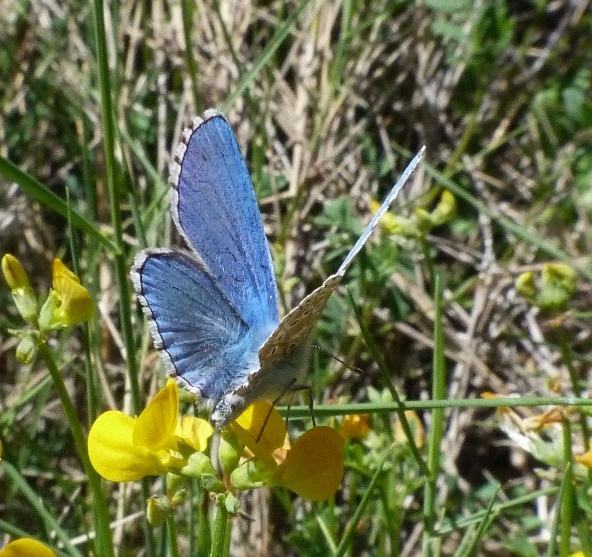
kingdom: Animalia
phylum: Arthropoda
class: Insecta
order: Lepidoptera
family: Lycaenidae
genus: Lysandra
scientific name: Lysandra bellargus
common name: Adonis blue
